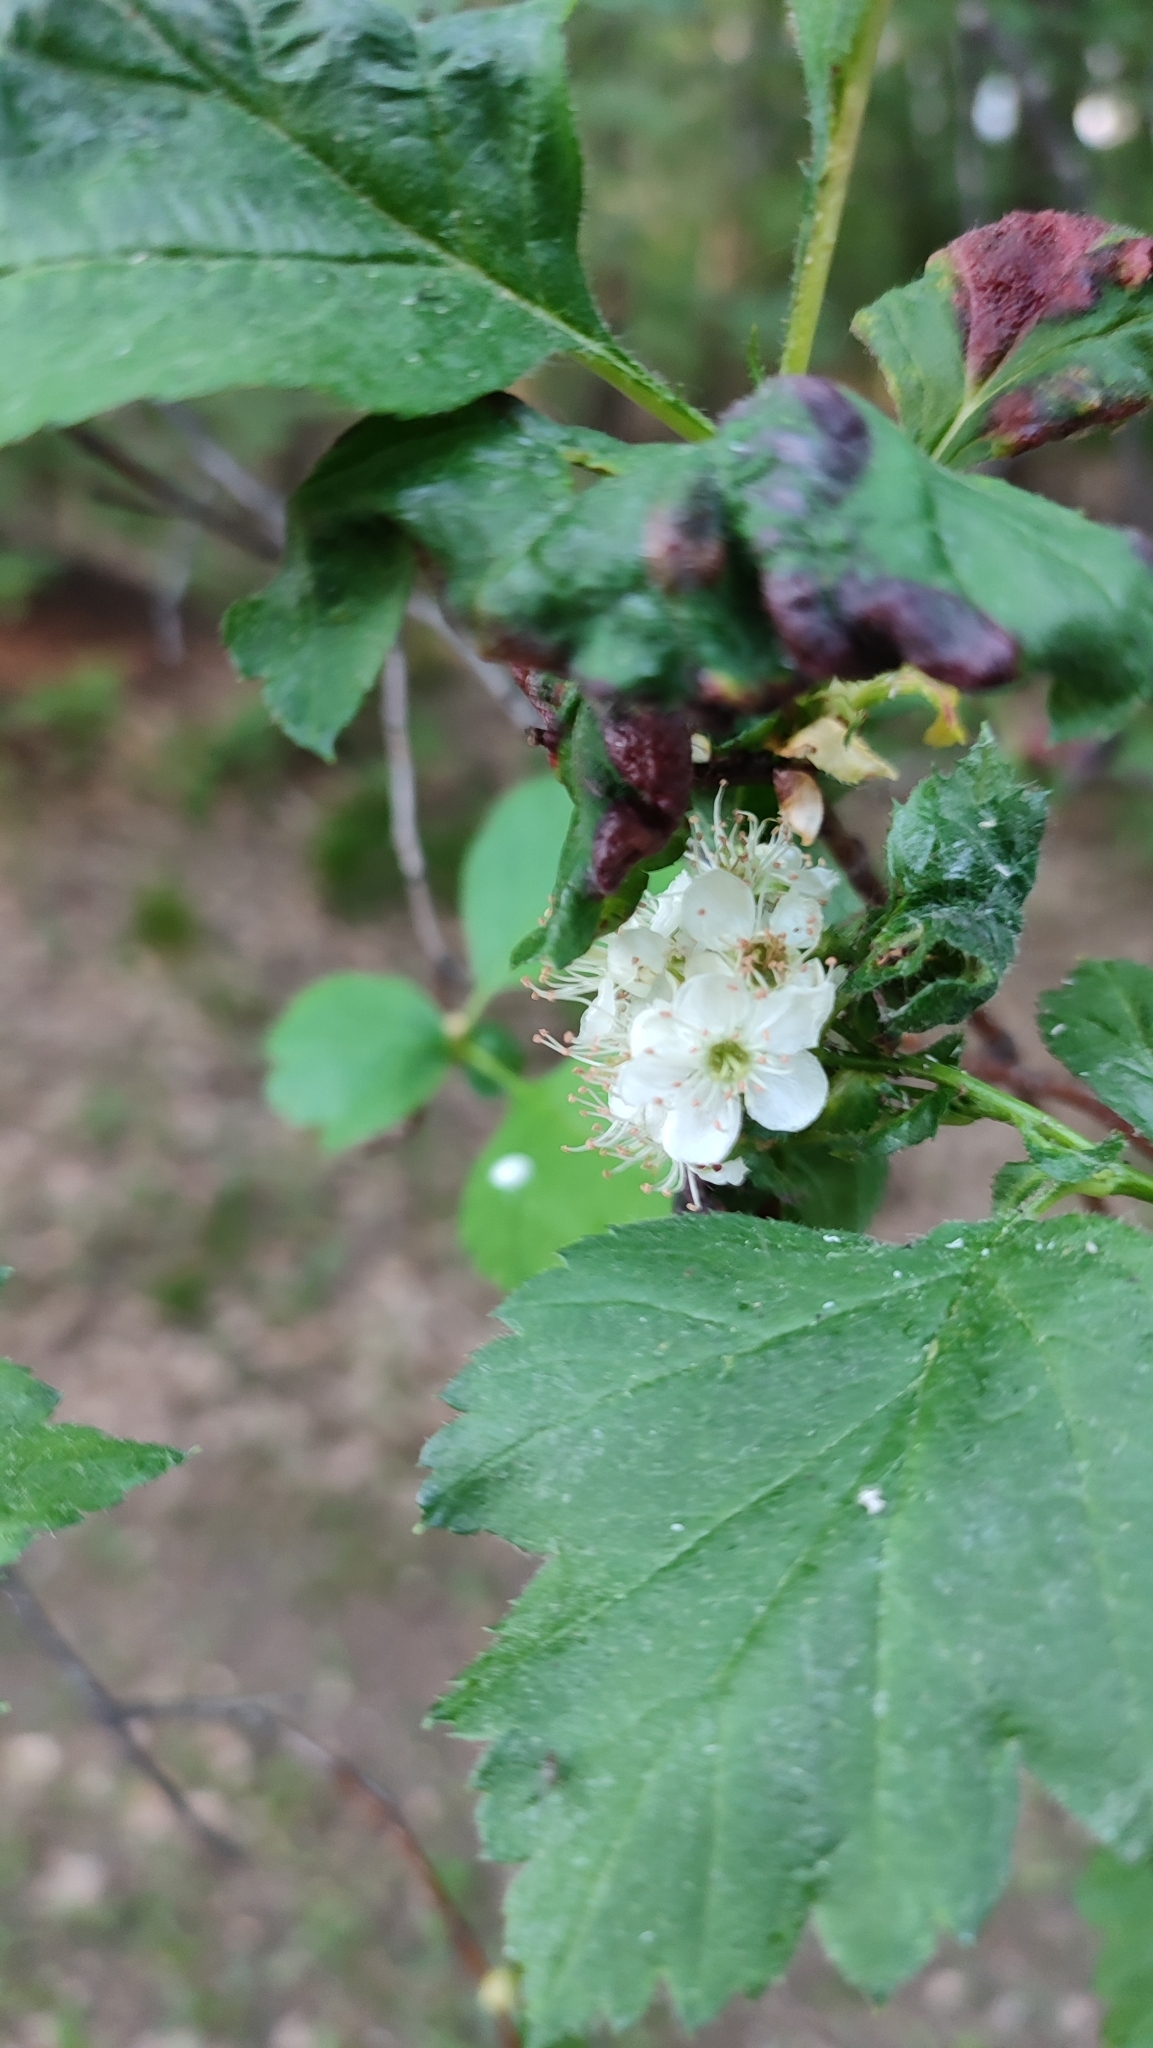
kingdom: Plantae
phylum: Tracheophyta
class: Magnoliopsida
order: Rosales
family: Rosaceae
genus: Crataegus
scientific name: Crataegus sanguinea
